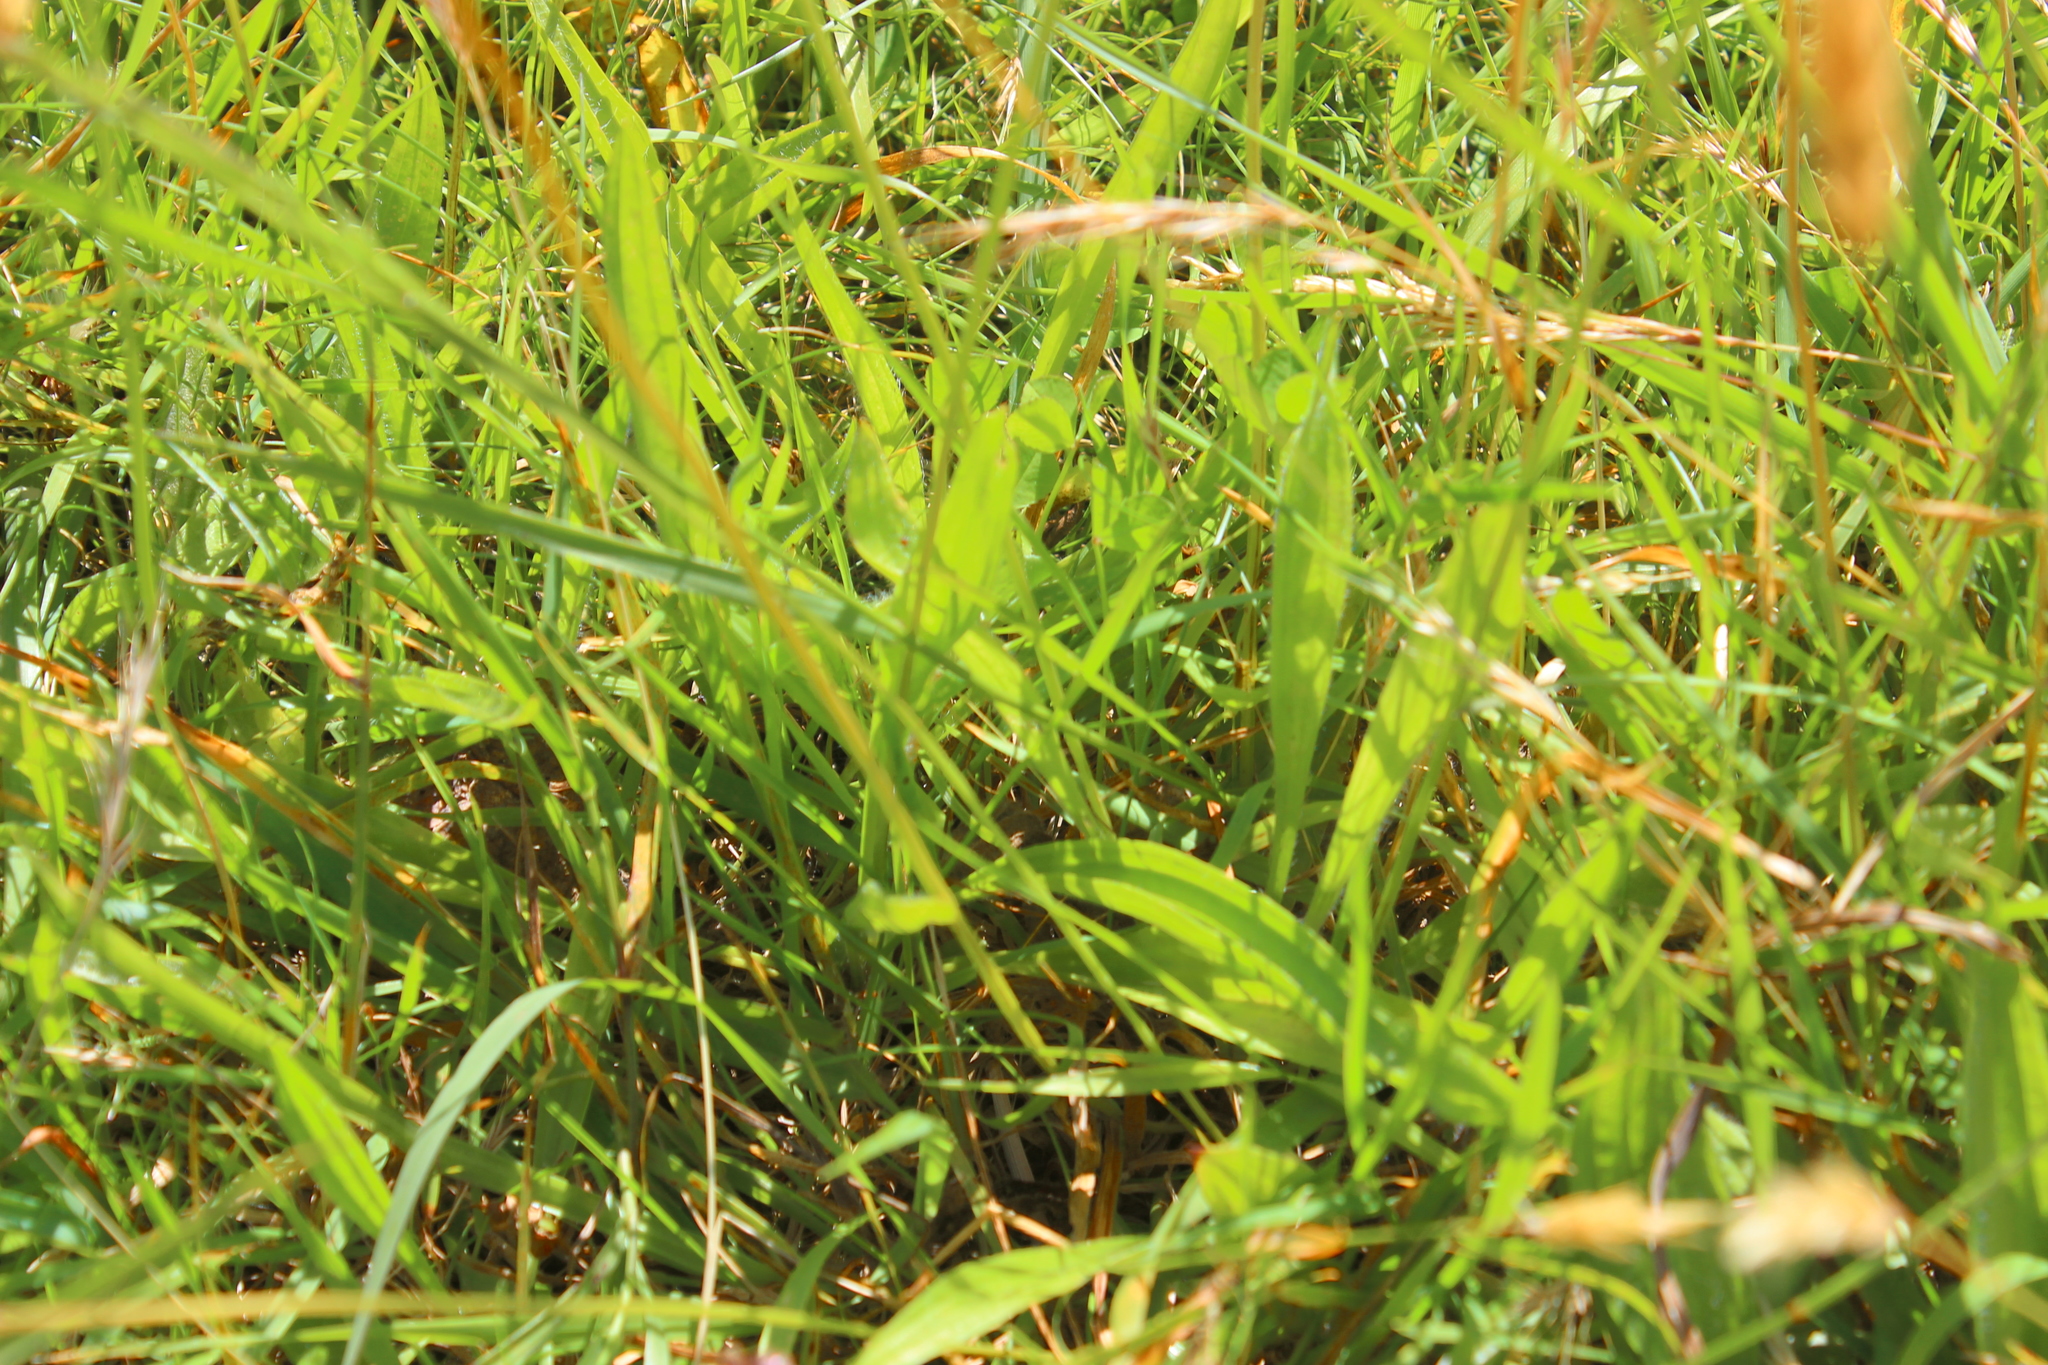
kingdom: Plantae
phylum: Tracheophyta
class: Magnoliopsida
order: Lamiales
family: Plantaginaceae
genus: Plantago
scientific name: Plantago lanceolata
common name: Ribwort plantain
